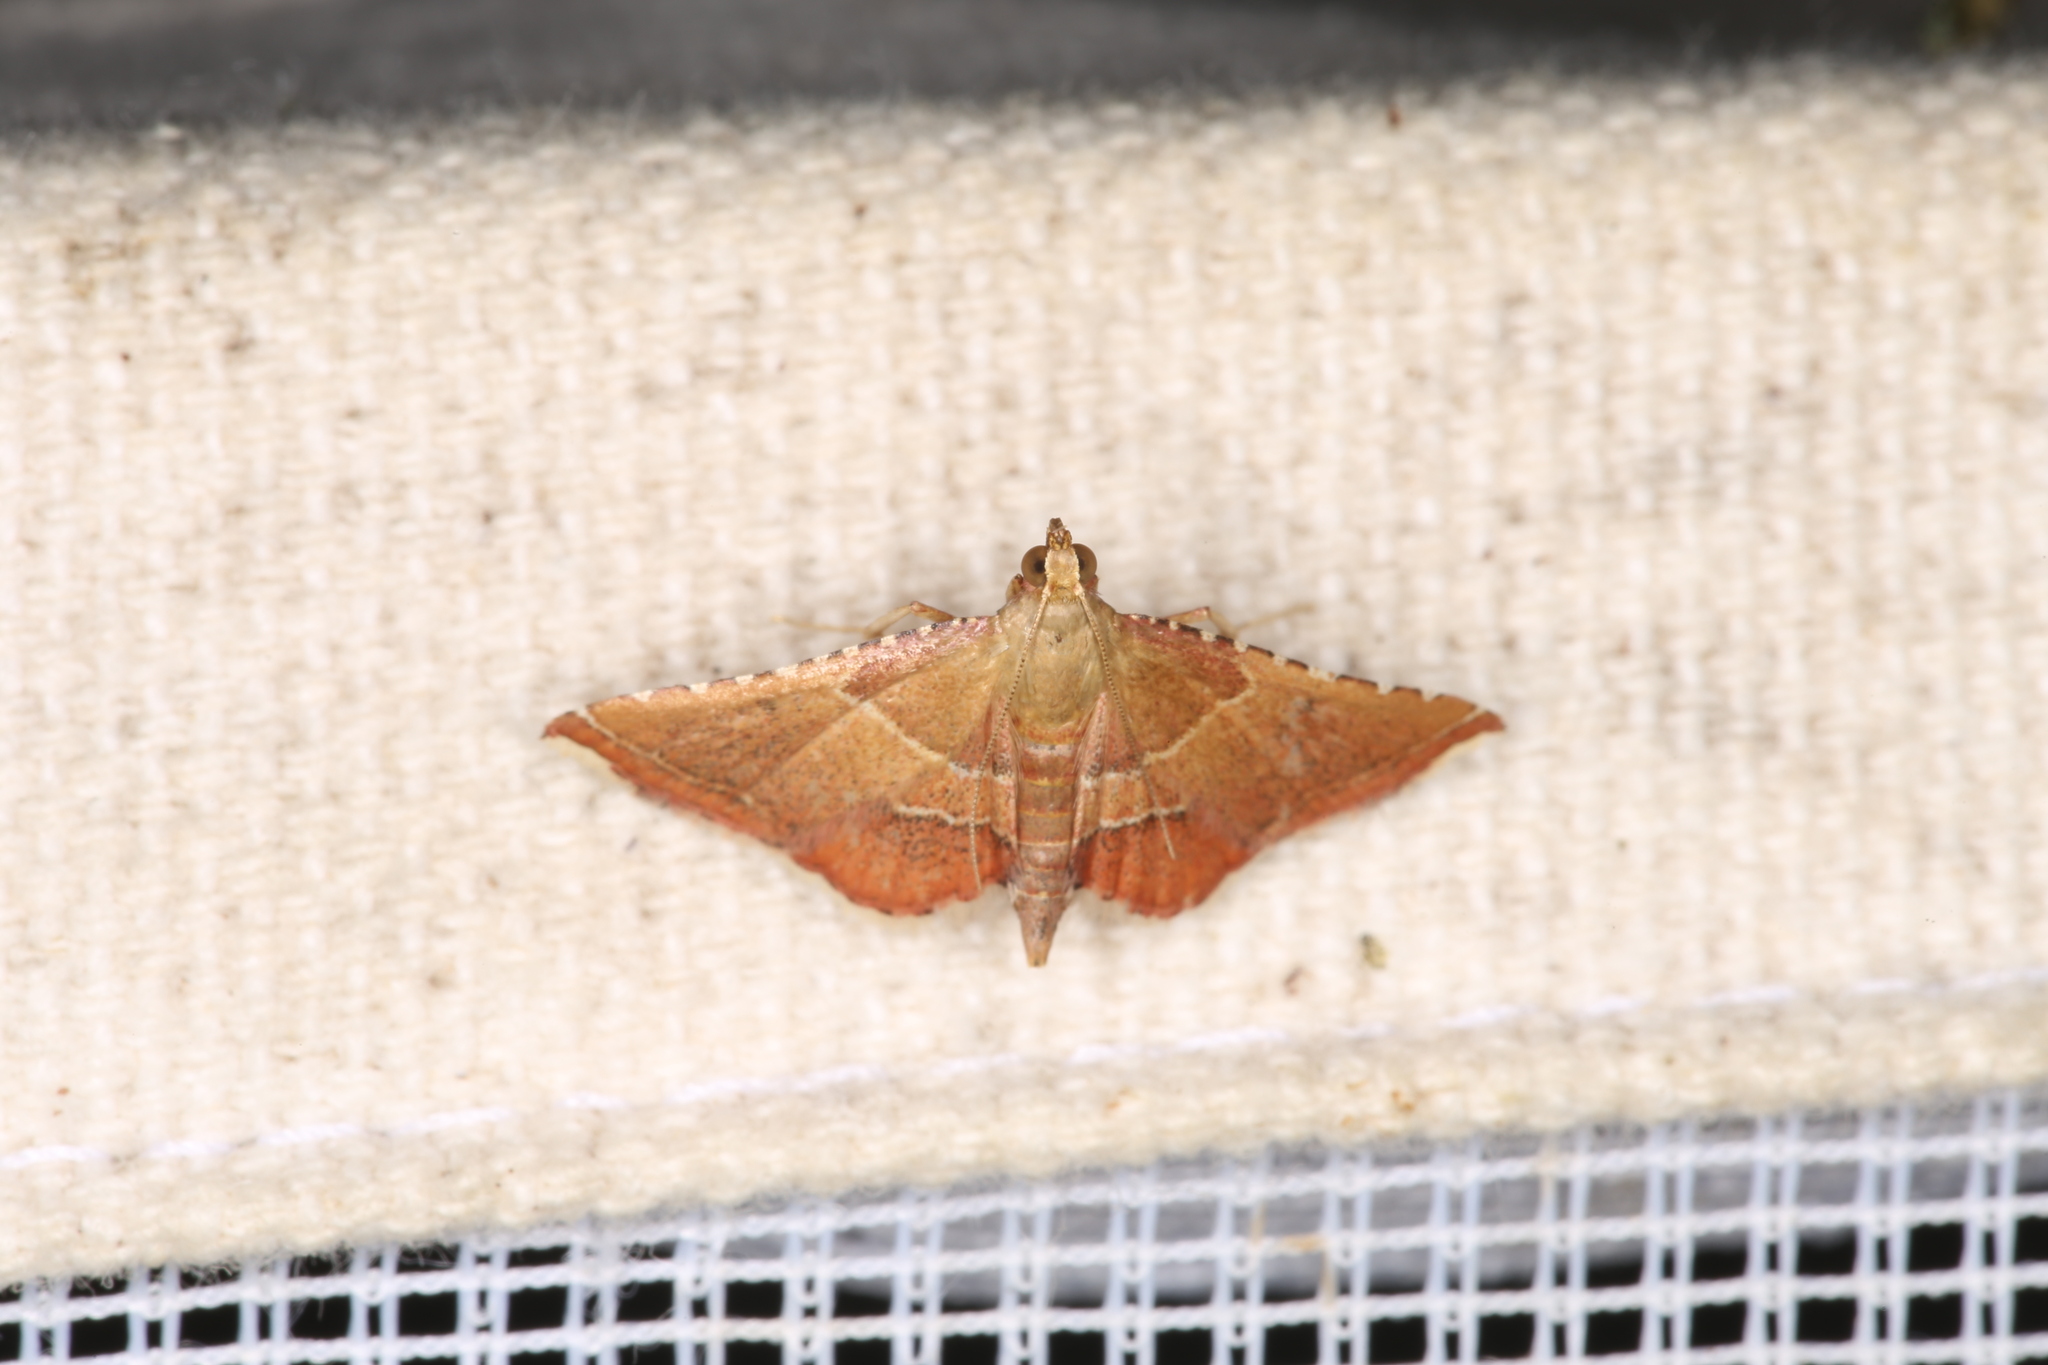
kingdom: Animalia
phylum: Arthropoda
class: Insecta
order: Lepidoptera
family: Pyralidae
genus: Endotricha
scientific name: Endotricha flammealis
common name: Rosy tabby
